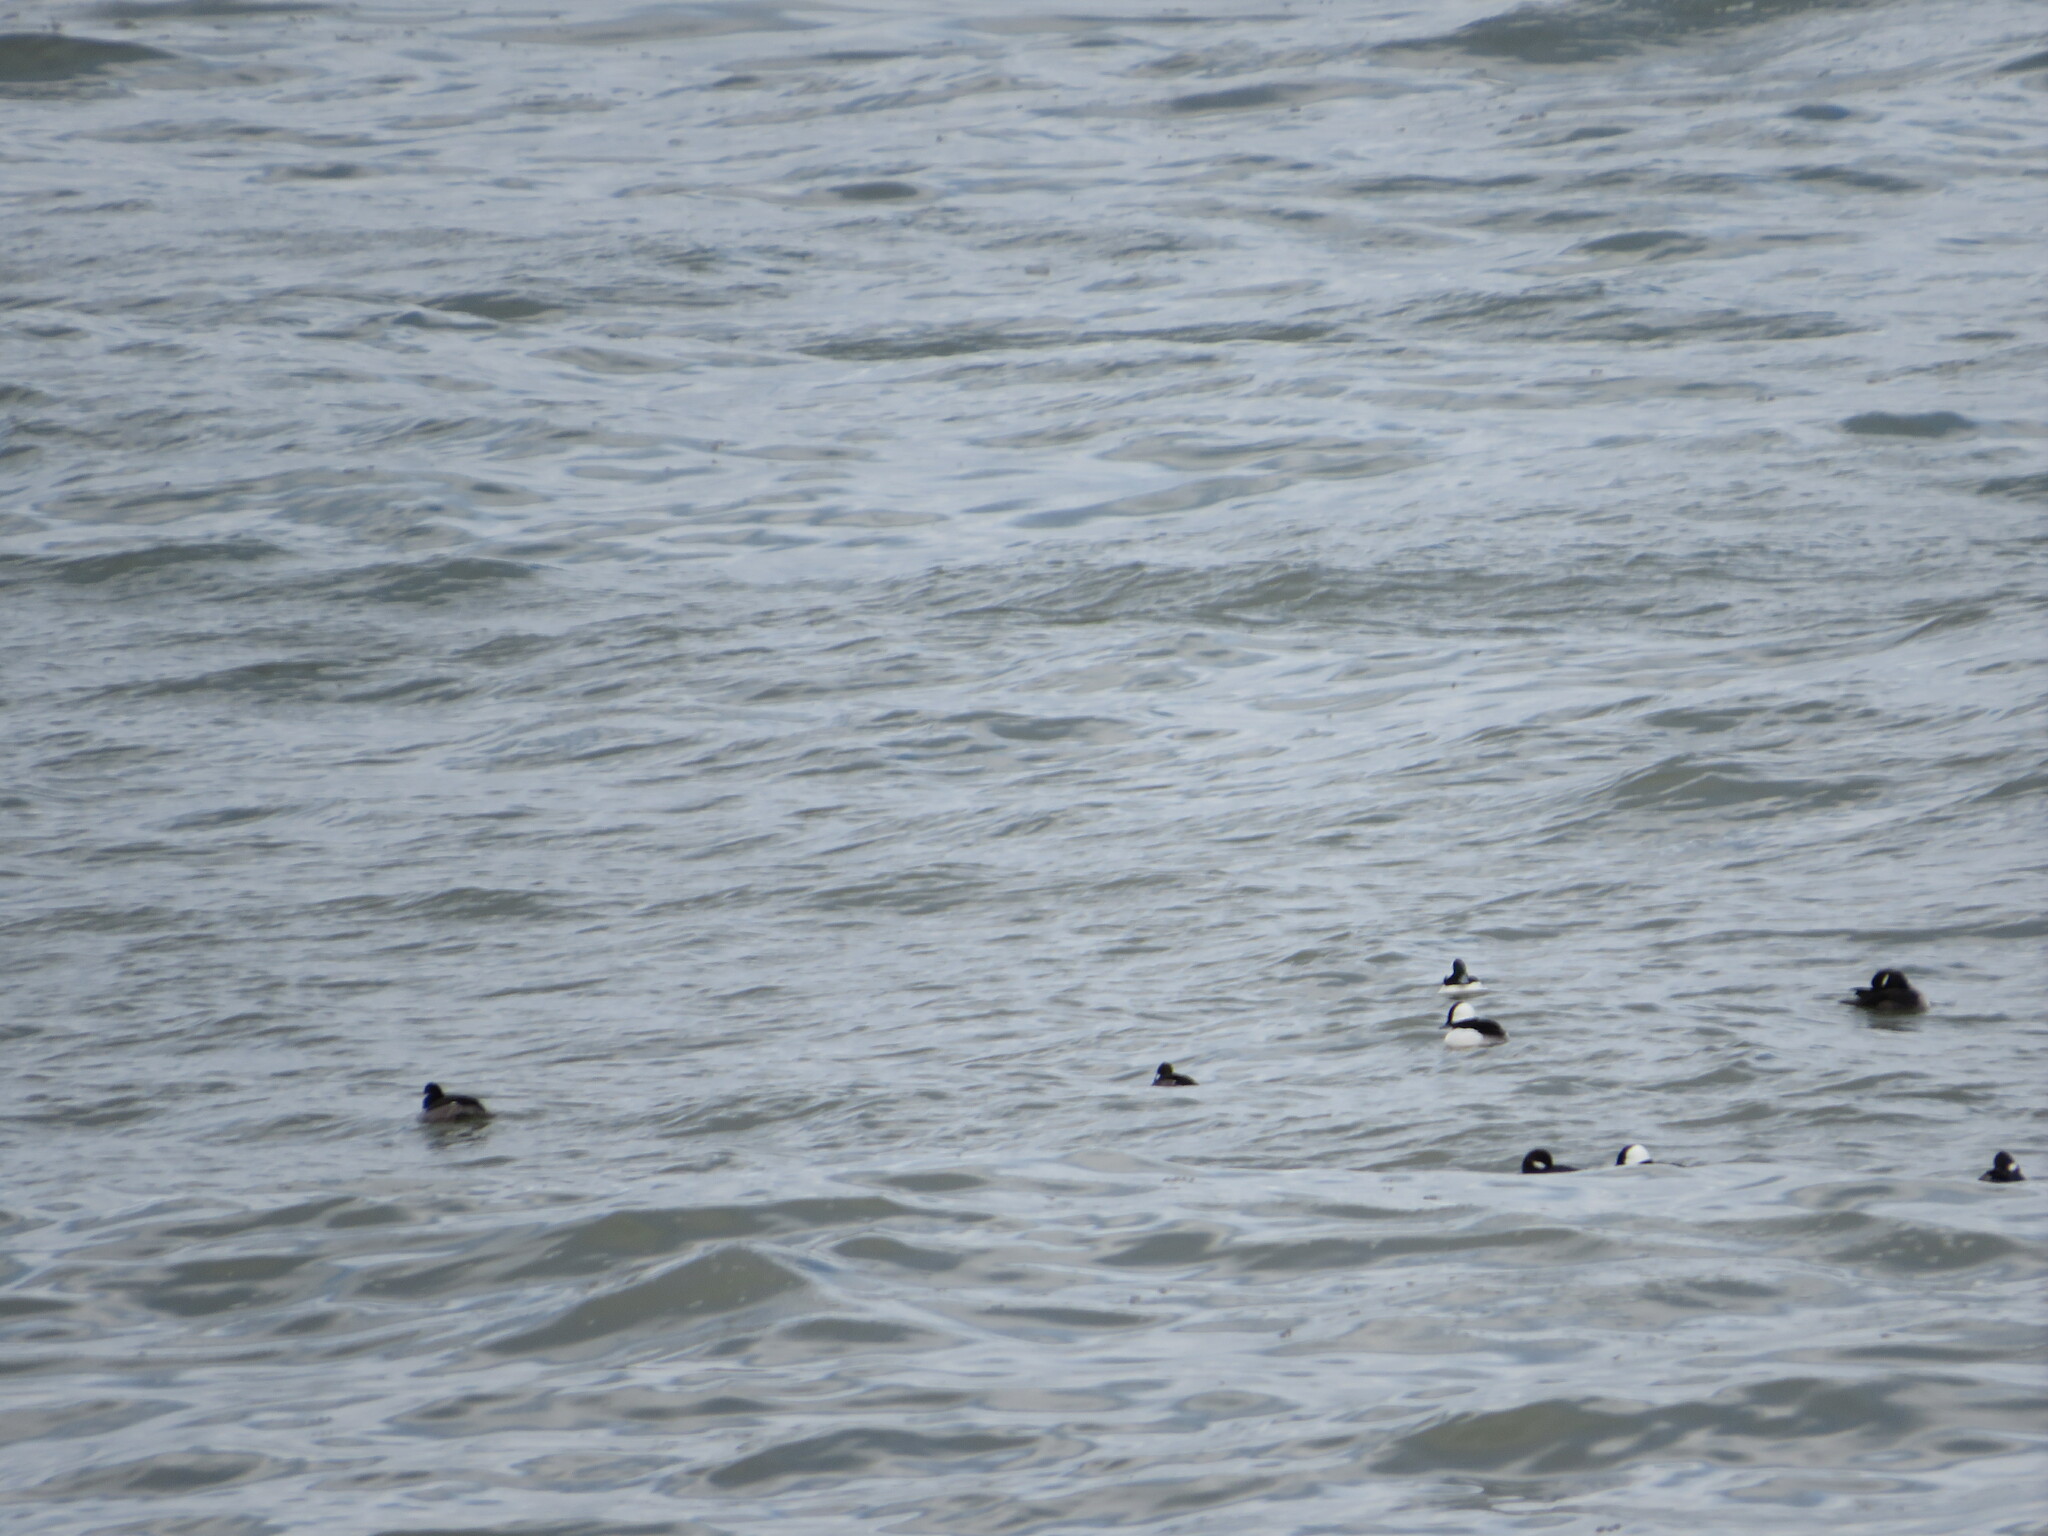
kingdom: Animalia
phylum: Chordata
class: Aves
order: Anseriformes
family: Anatidae
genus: Bucephala
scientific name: Bucephala albeola
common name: Bufflehead
